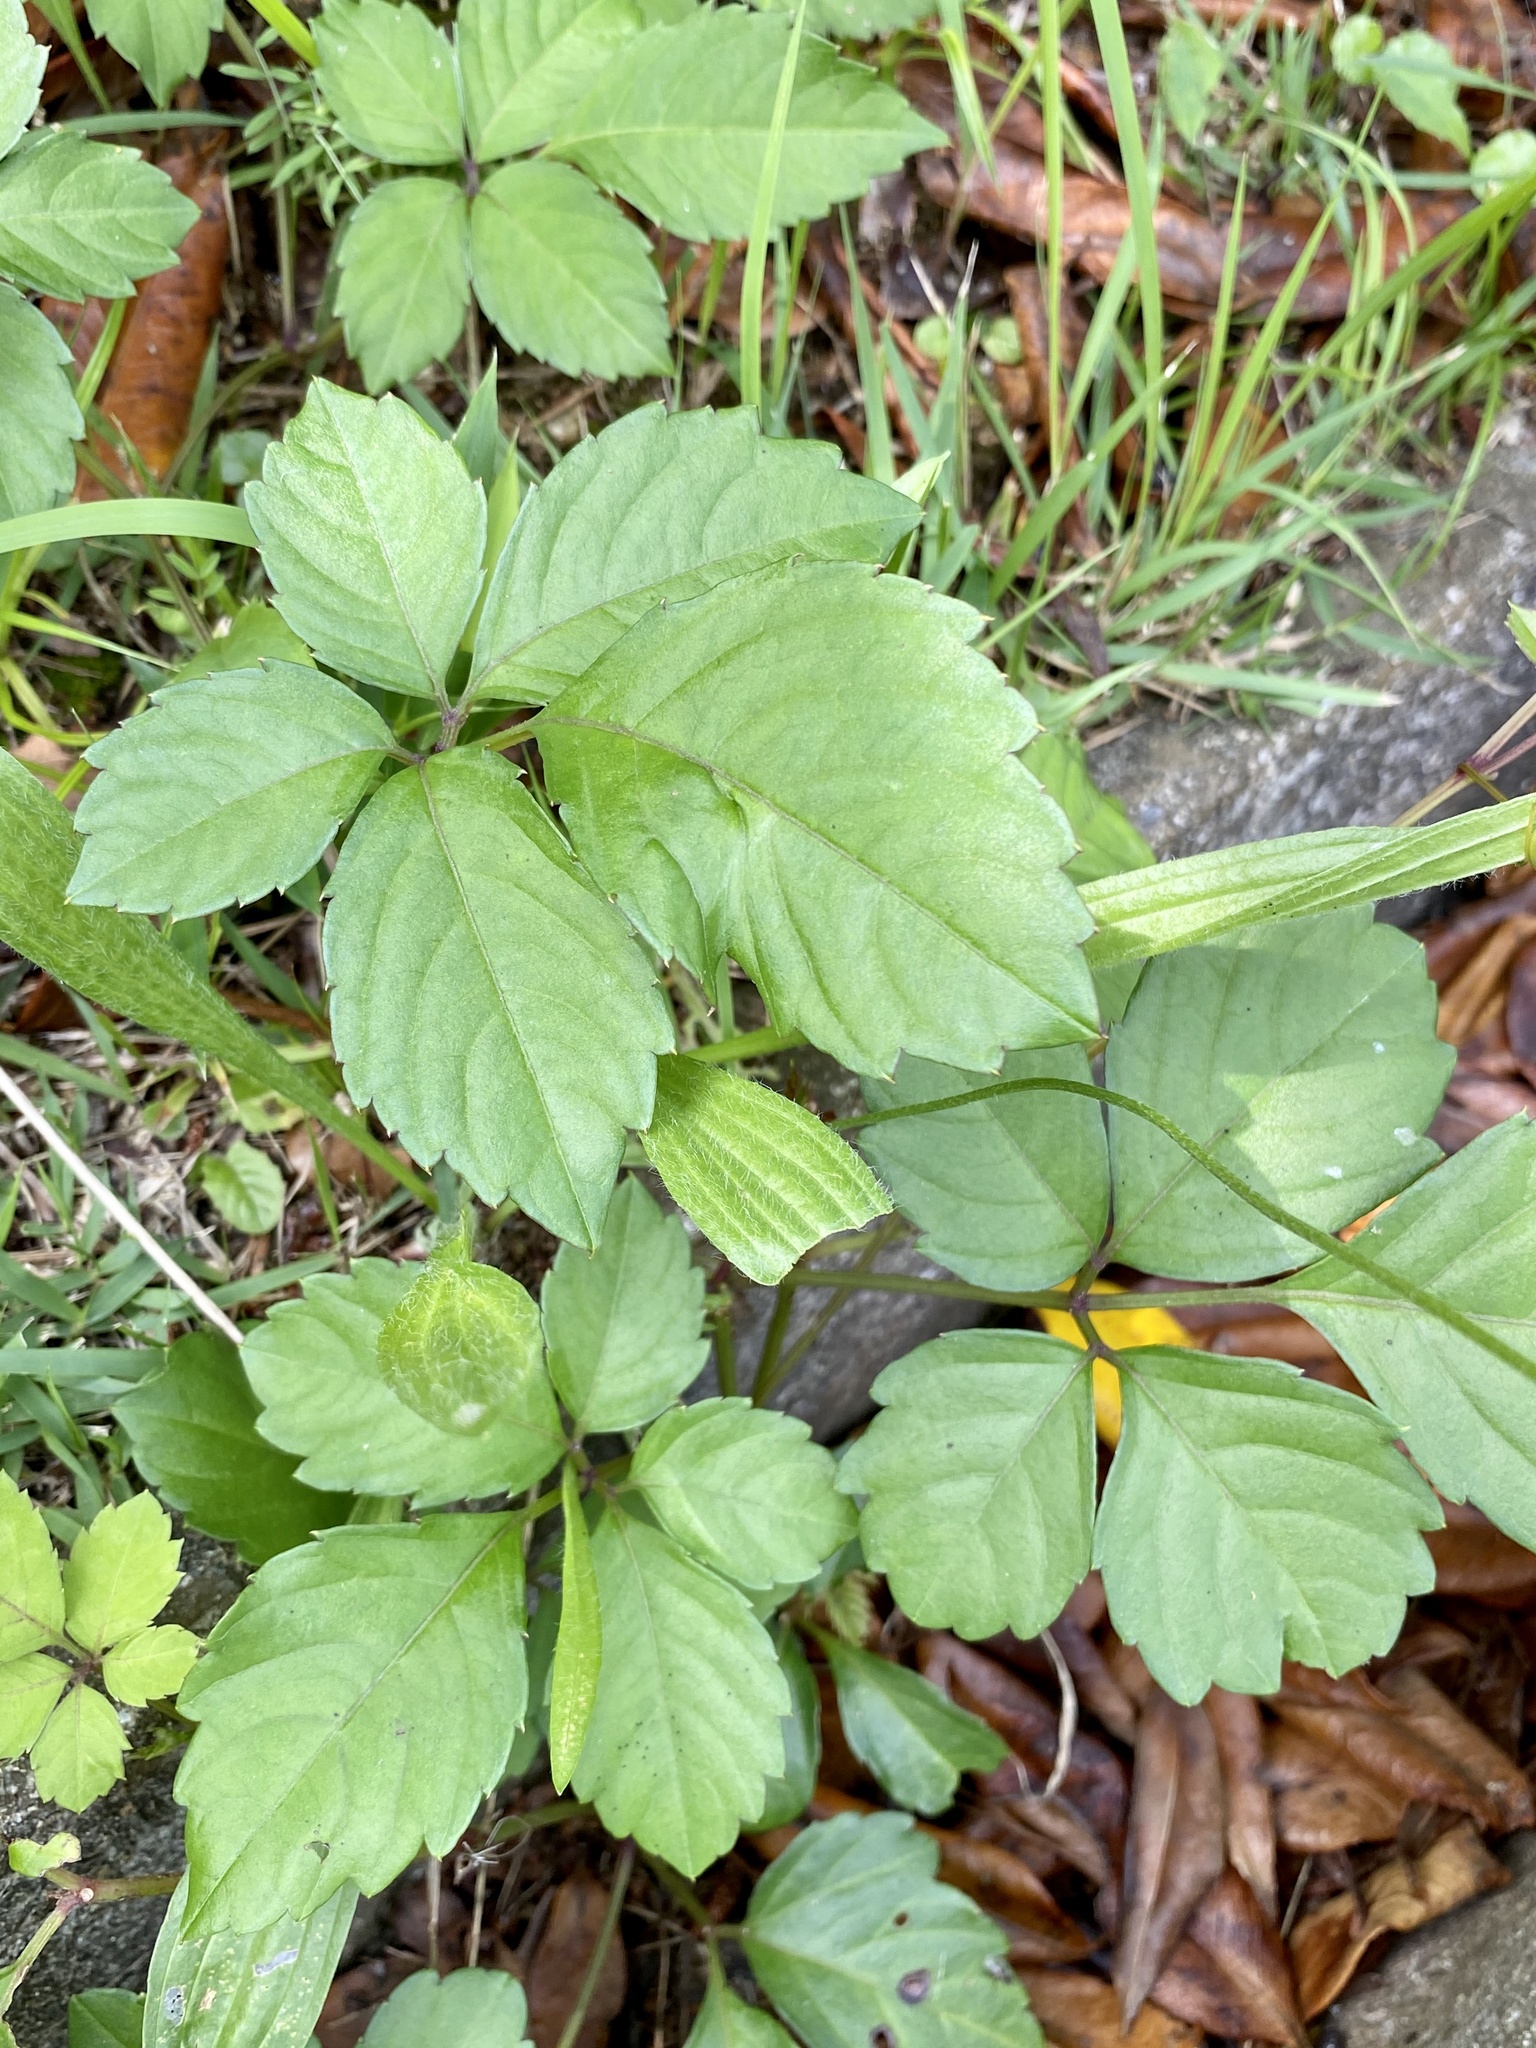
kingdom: Plantae
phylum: Tracheophyta
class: Magnoliopsida
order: Vitales
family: Vitaceae
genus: Causonis
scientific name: Causonis japonica
